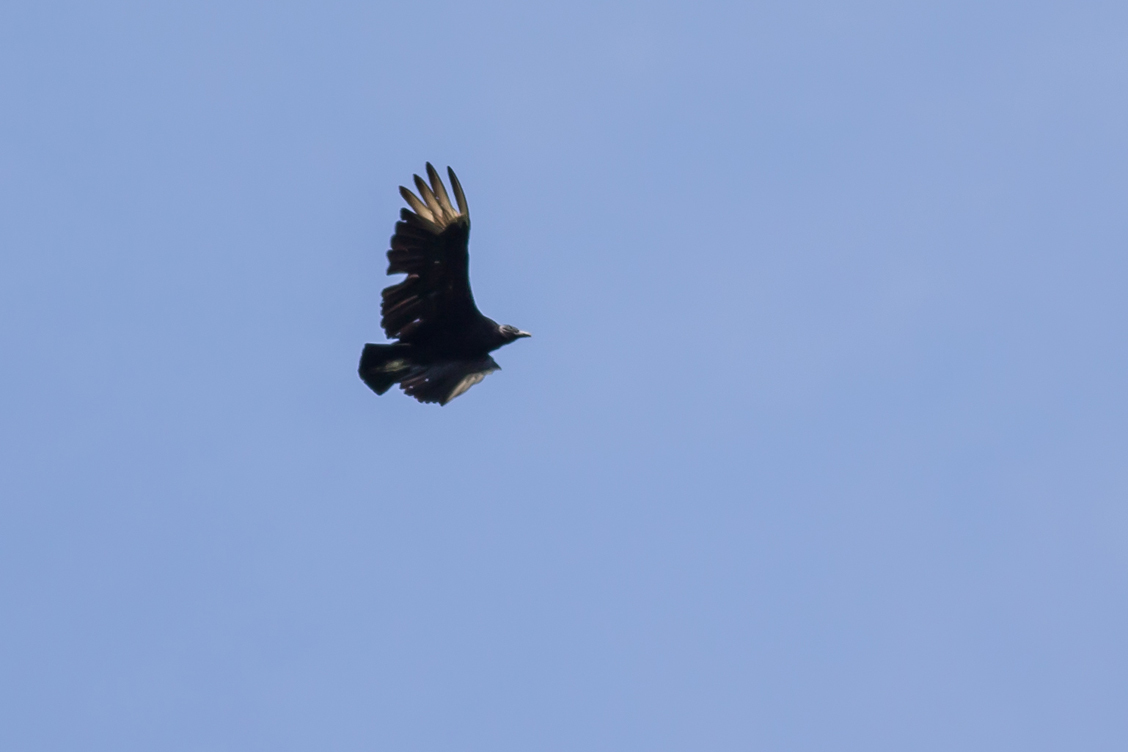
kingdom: Animalia
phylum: Chordata
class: Aves
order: Accipitriformes
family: Cathartidae
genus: Coragyps
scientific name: Coragyps atratus
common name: Black vulture
